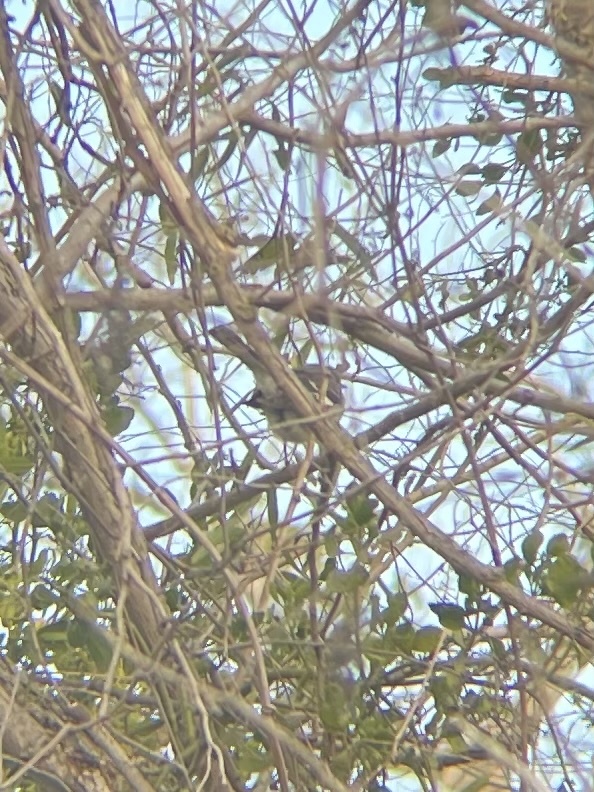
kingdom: Animalia
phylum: Chordata
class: Aves
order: Passeriformes
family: Mimidae
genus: Mimus
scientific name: Mimus polyglottos
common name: Northern mockingbird
